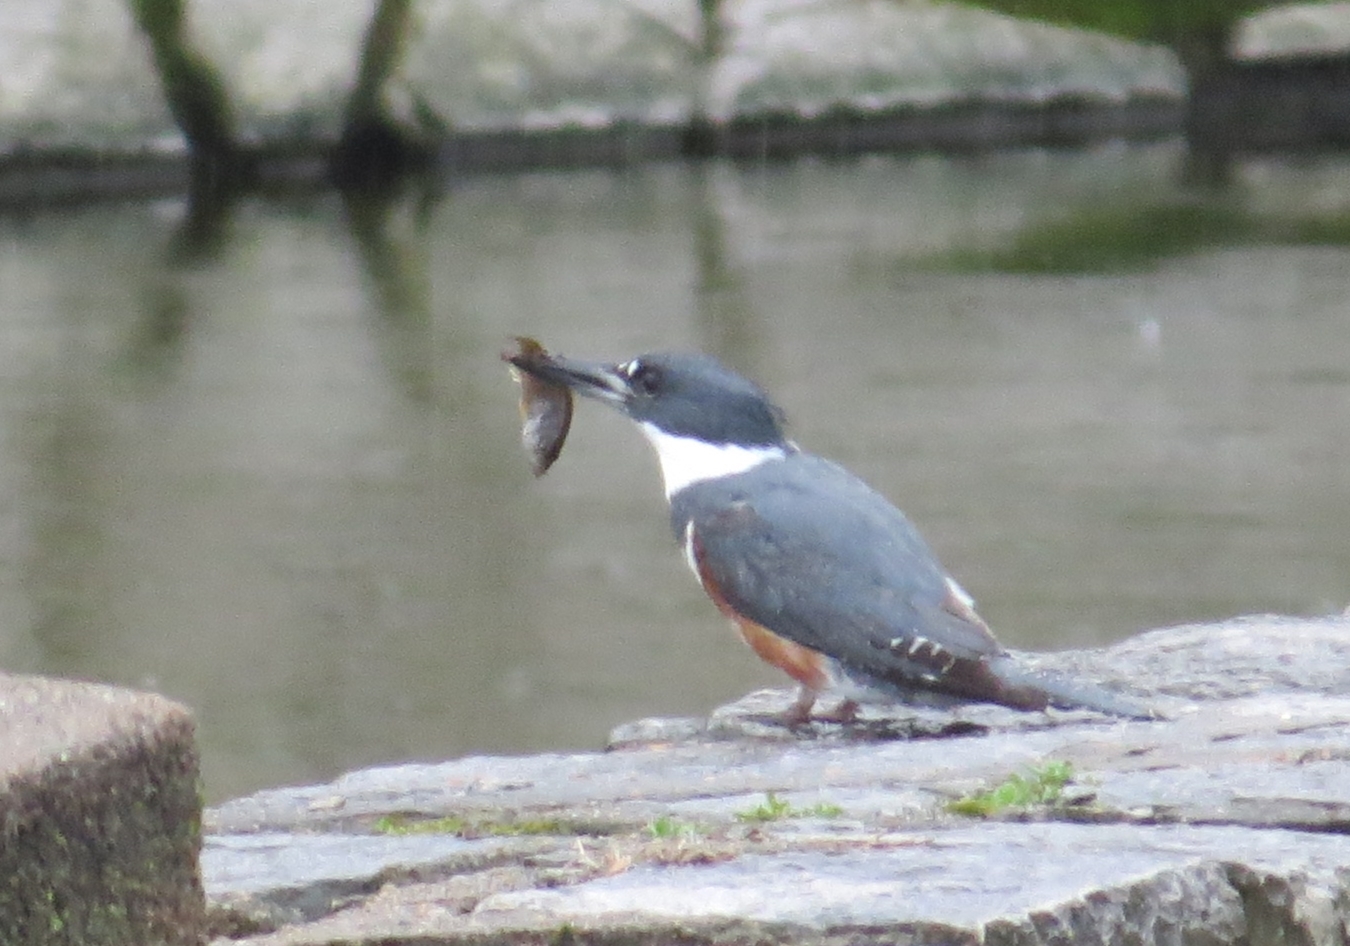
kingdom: Animalia
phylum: Chordata
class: Aves
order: Coraciiformes
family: Alcedinidae
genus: Megaceryle
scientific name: Megaceryle alcyon
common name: Belted kingfisher
